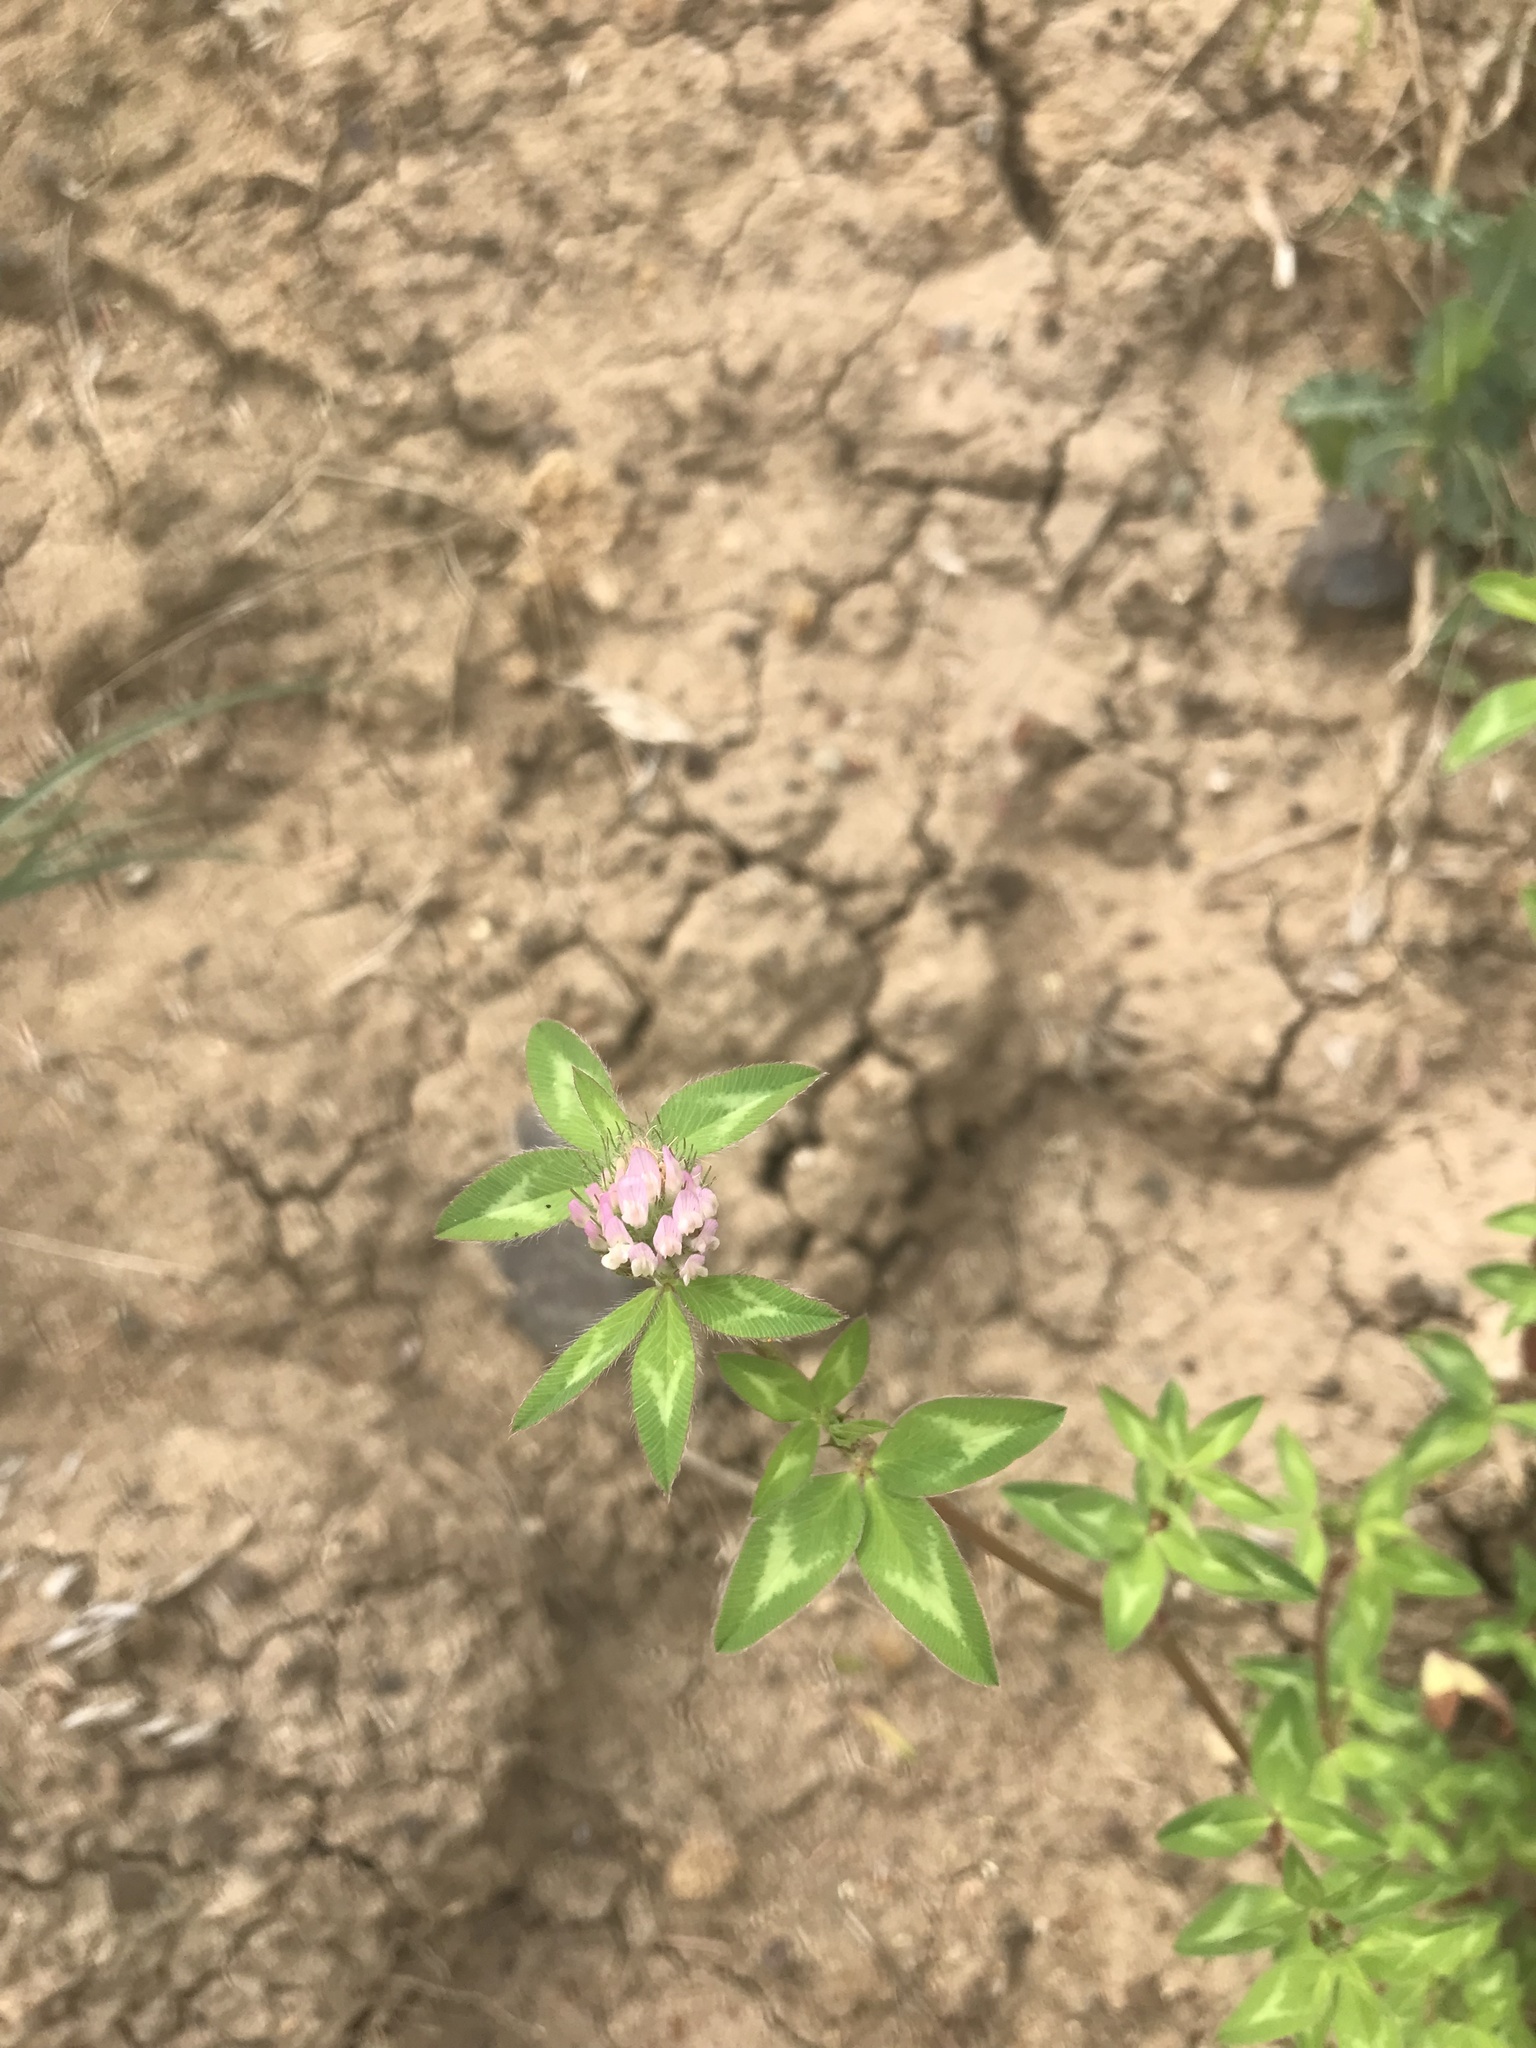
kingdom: Plantae
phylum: Tracheophyta
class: Magnoliopsida
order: Fabales
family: Fabaceae
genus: Trifolium
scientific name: Trifolium pratense
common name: Red clover
